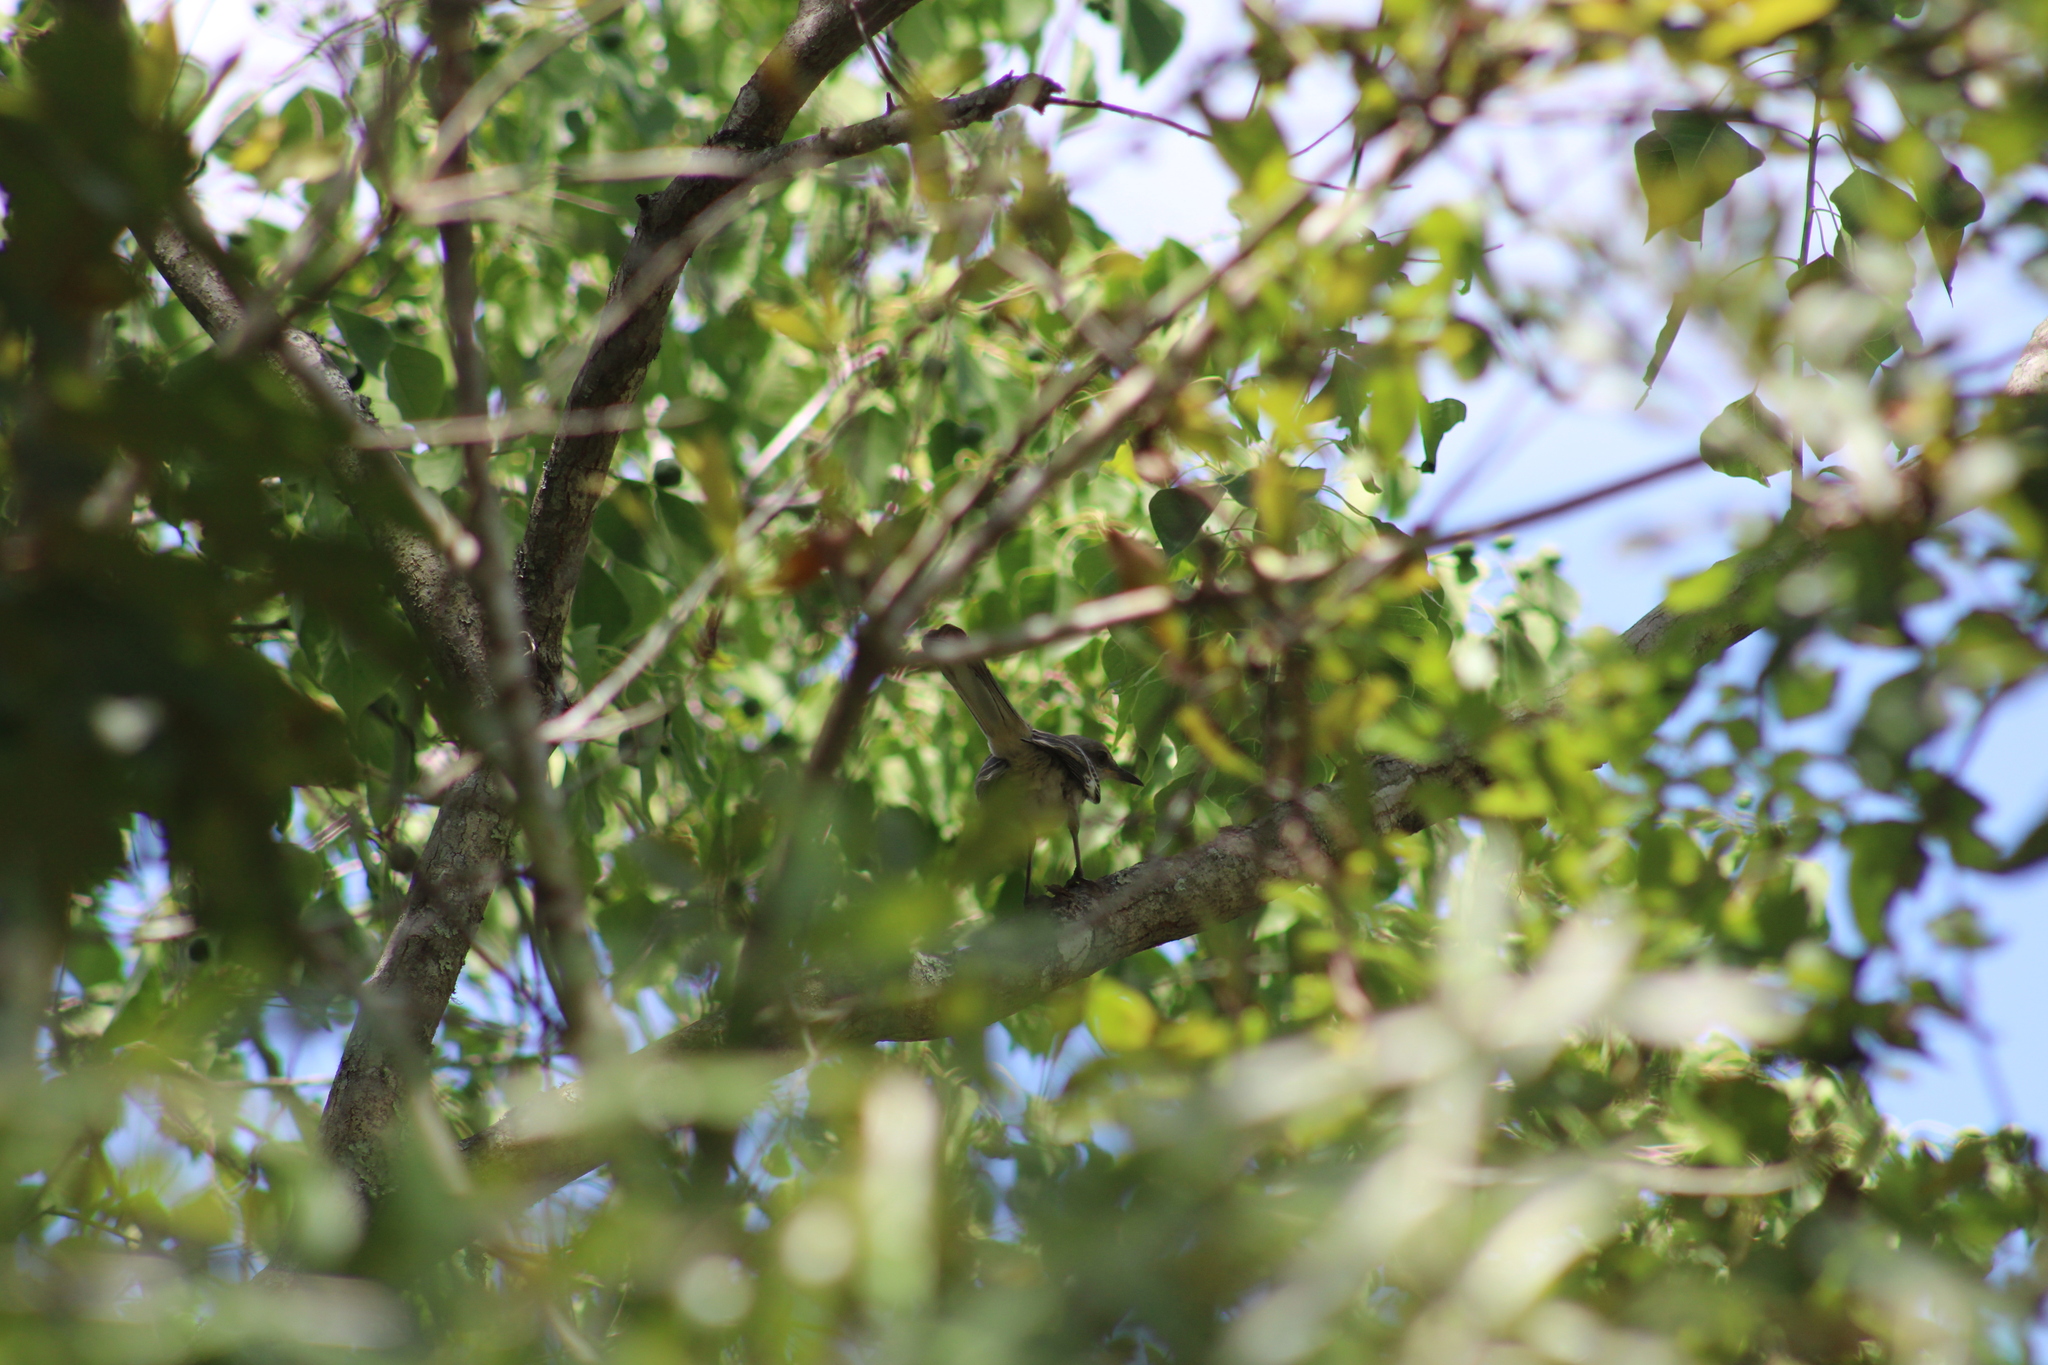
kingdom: Animalia
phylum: Chordata
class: Aves
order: Passeriformes
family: Mimidae
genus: Mimus
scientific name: Mimus polyglottos
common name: Northern mockingbird
